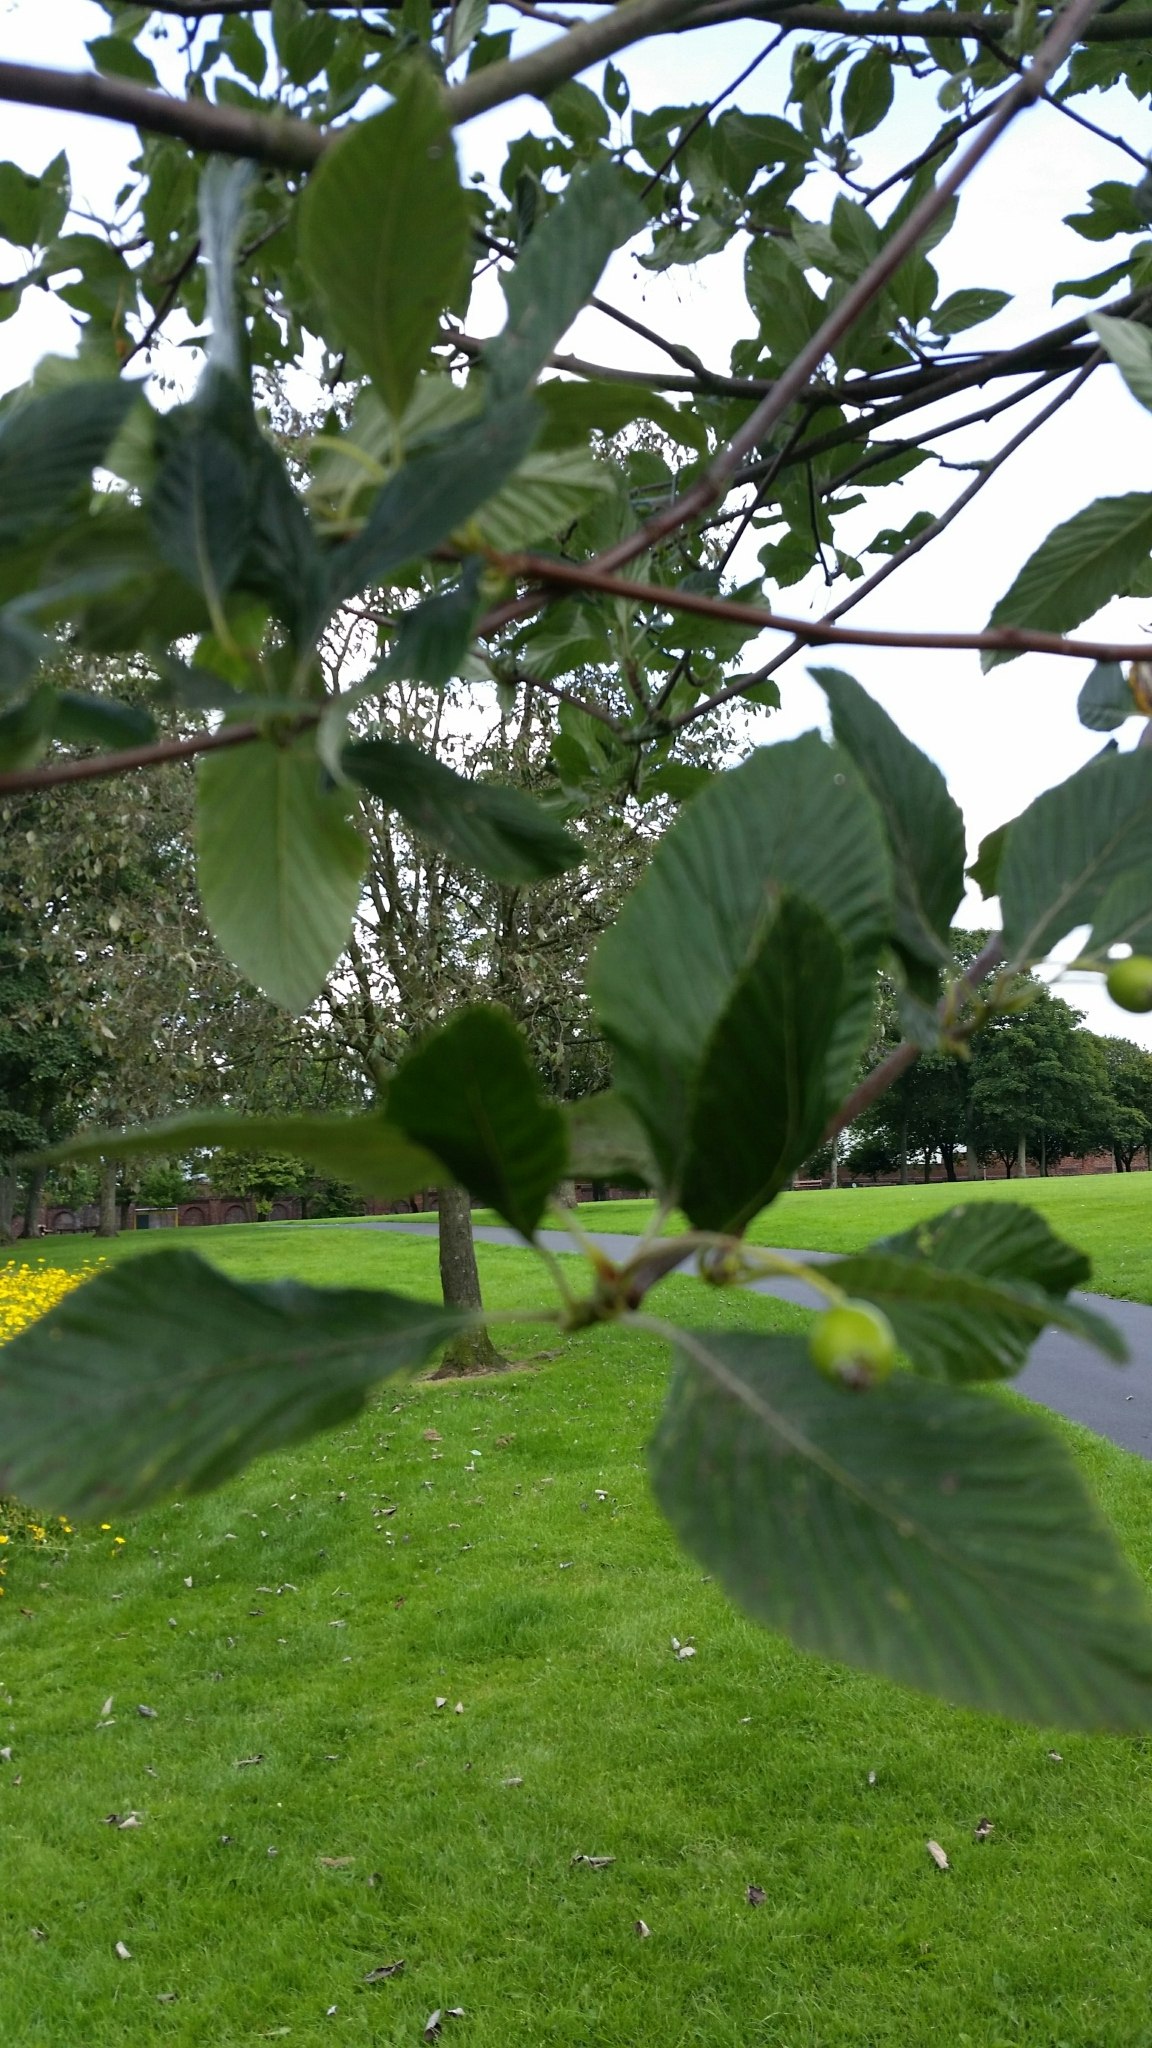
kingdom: Plantae
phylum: Tracheophyta
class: Magnoliopsida
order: Rosales
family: Rosaceae
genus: Aria
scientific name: Aria edulis
